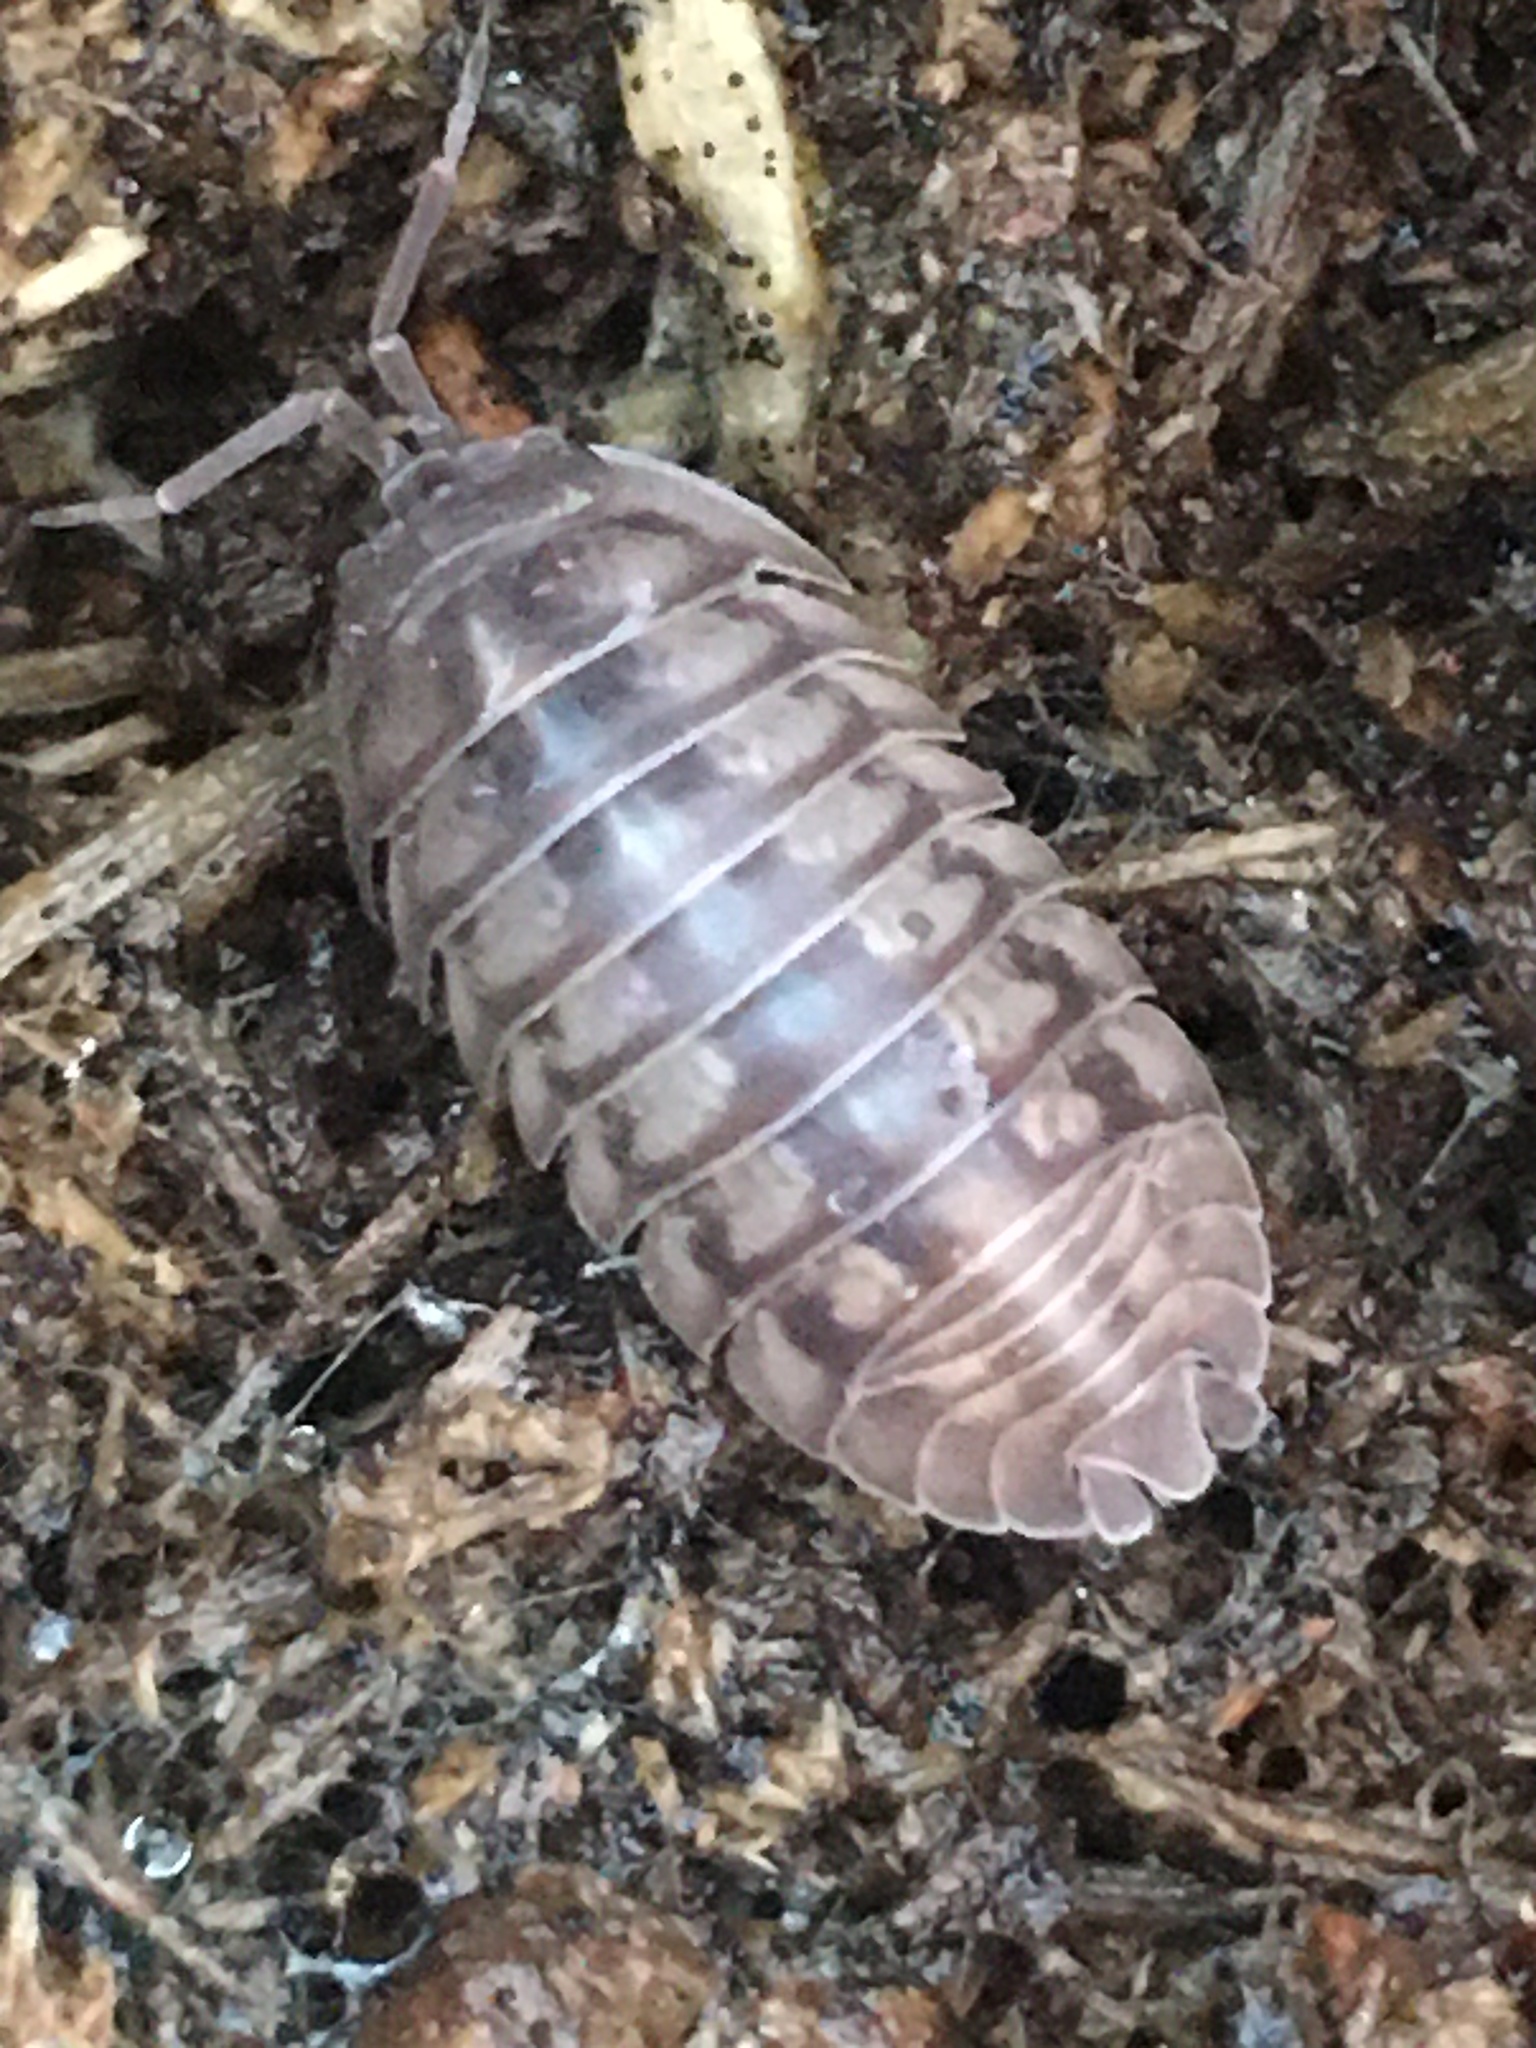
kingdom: Animalia
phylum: Arthropoda
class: Malacostraca
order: Isopoda
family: Armadillidiidae
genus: Armadillidium
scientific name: Armadillidium nasatum
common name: Isopod
